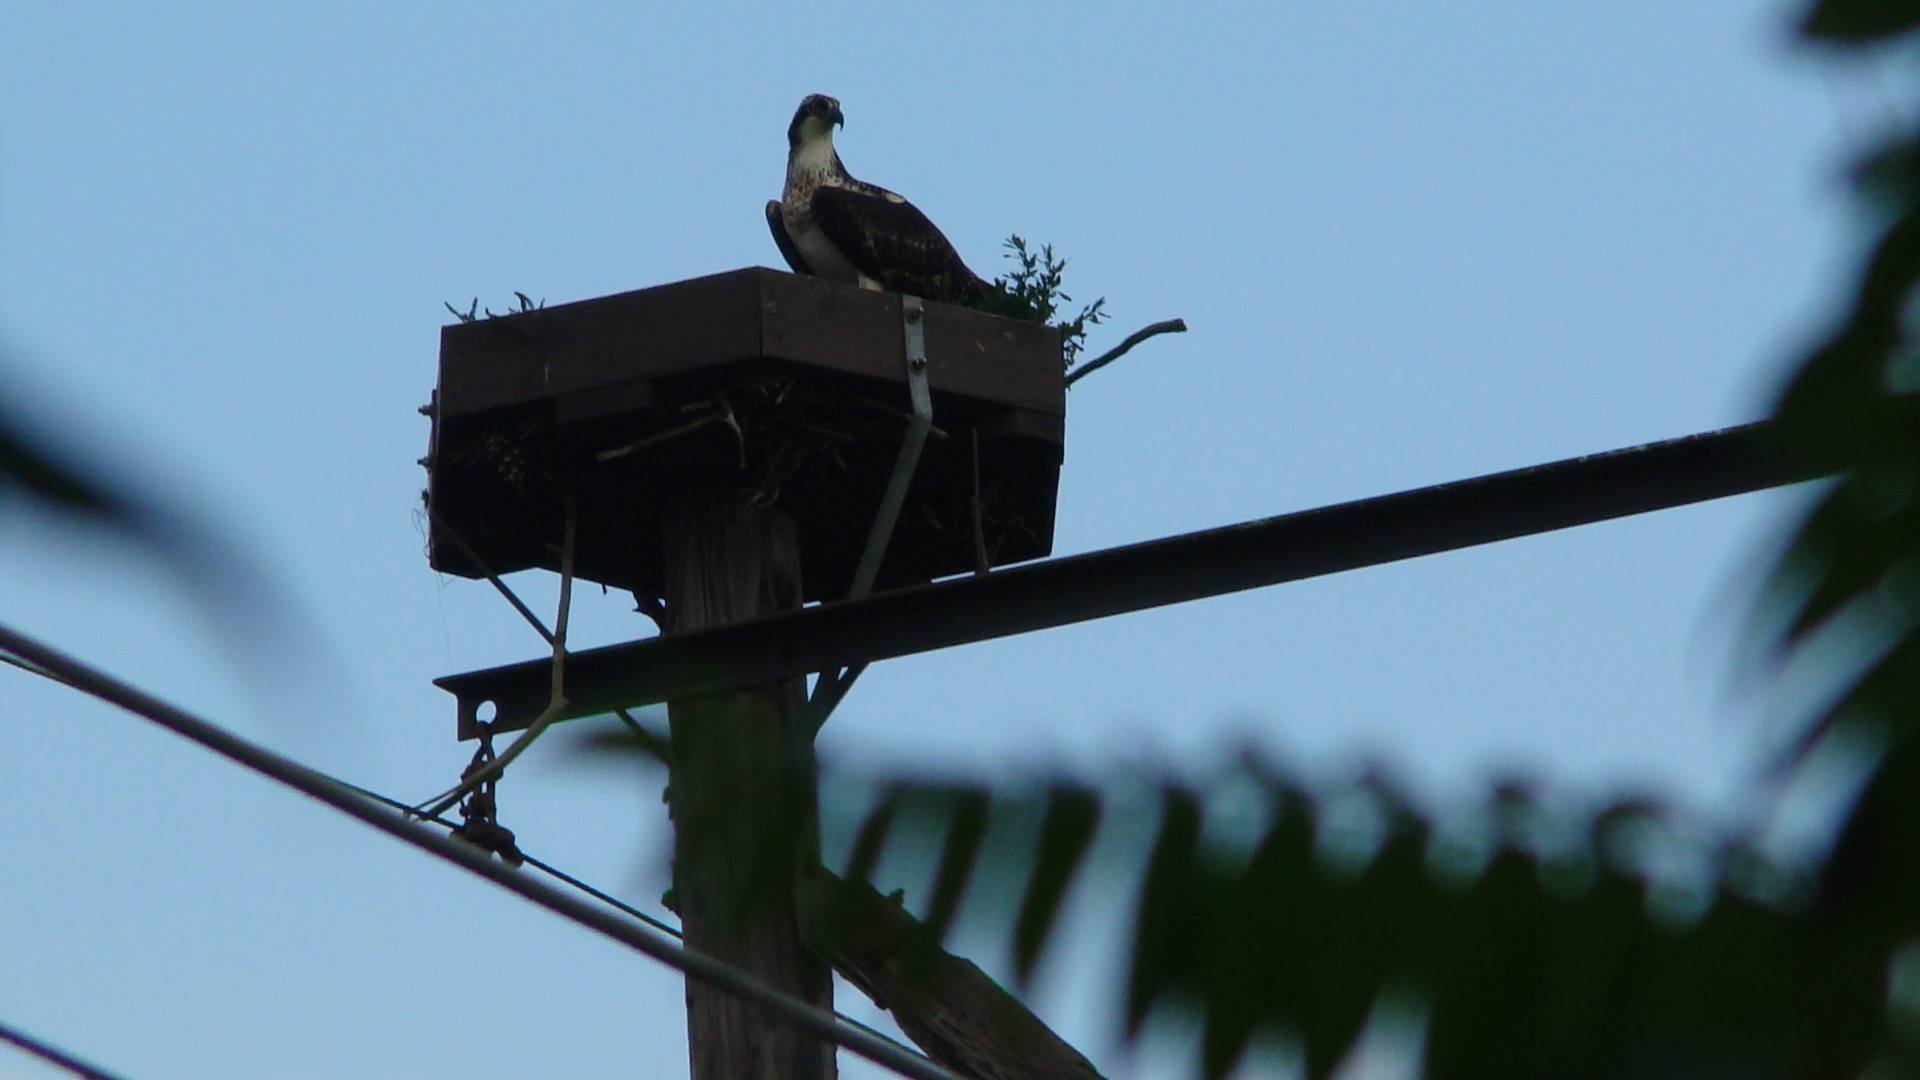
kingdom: Animalia
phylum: Chordata
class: Aves
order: Accipitriformes
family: Pandionidae
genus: Pandion
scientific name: Pandion haliaetus
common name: Osprey
